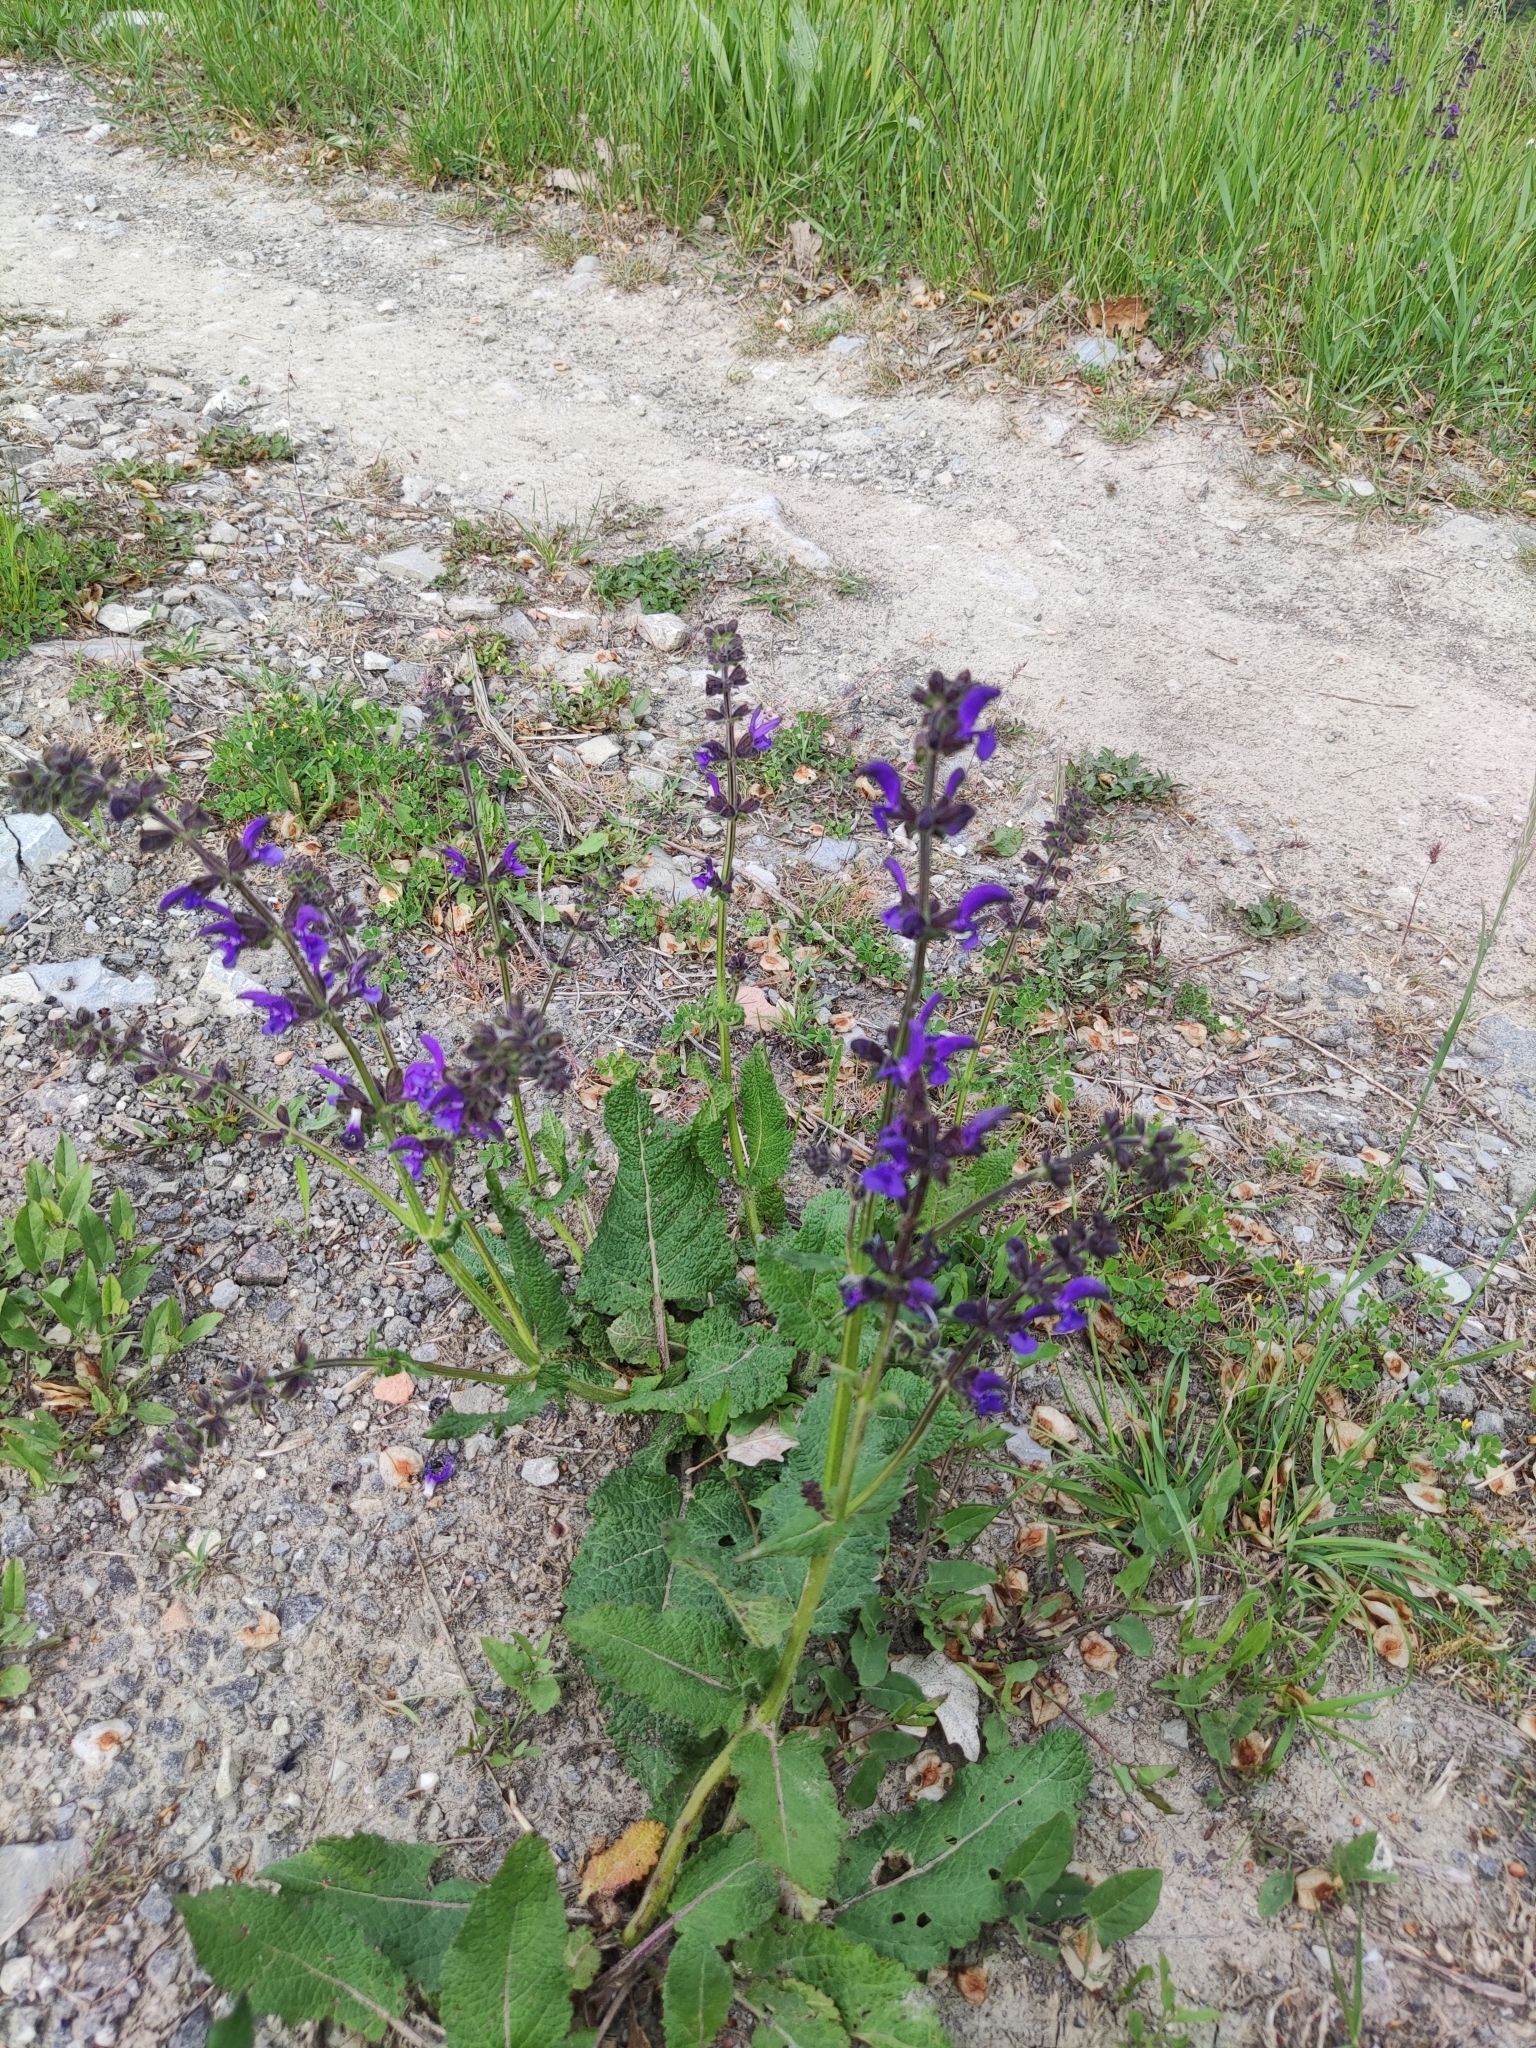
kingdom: Plantae
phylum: Tracheophyta
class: Magnoliopsida
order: Lamiales
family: Lamiaceae
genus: Salvia
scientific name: Salvia pratensis
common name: Meadow sage
